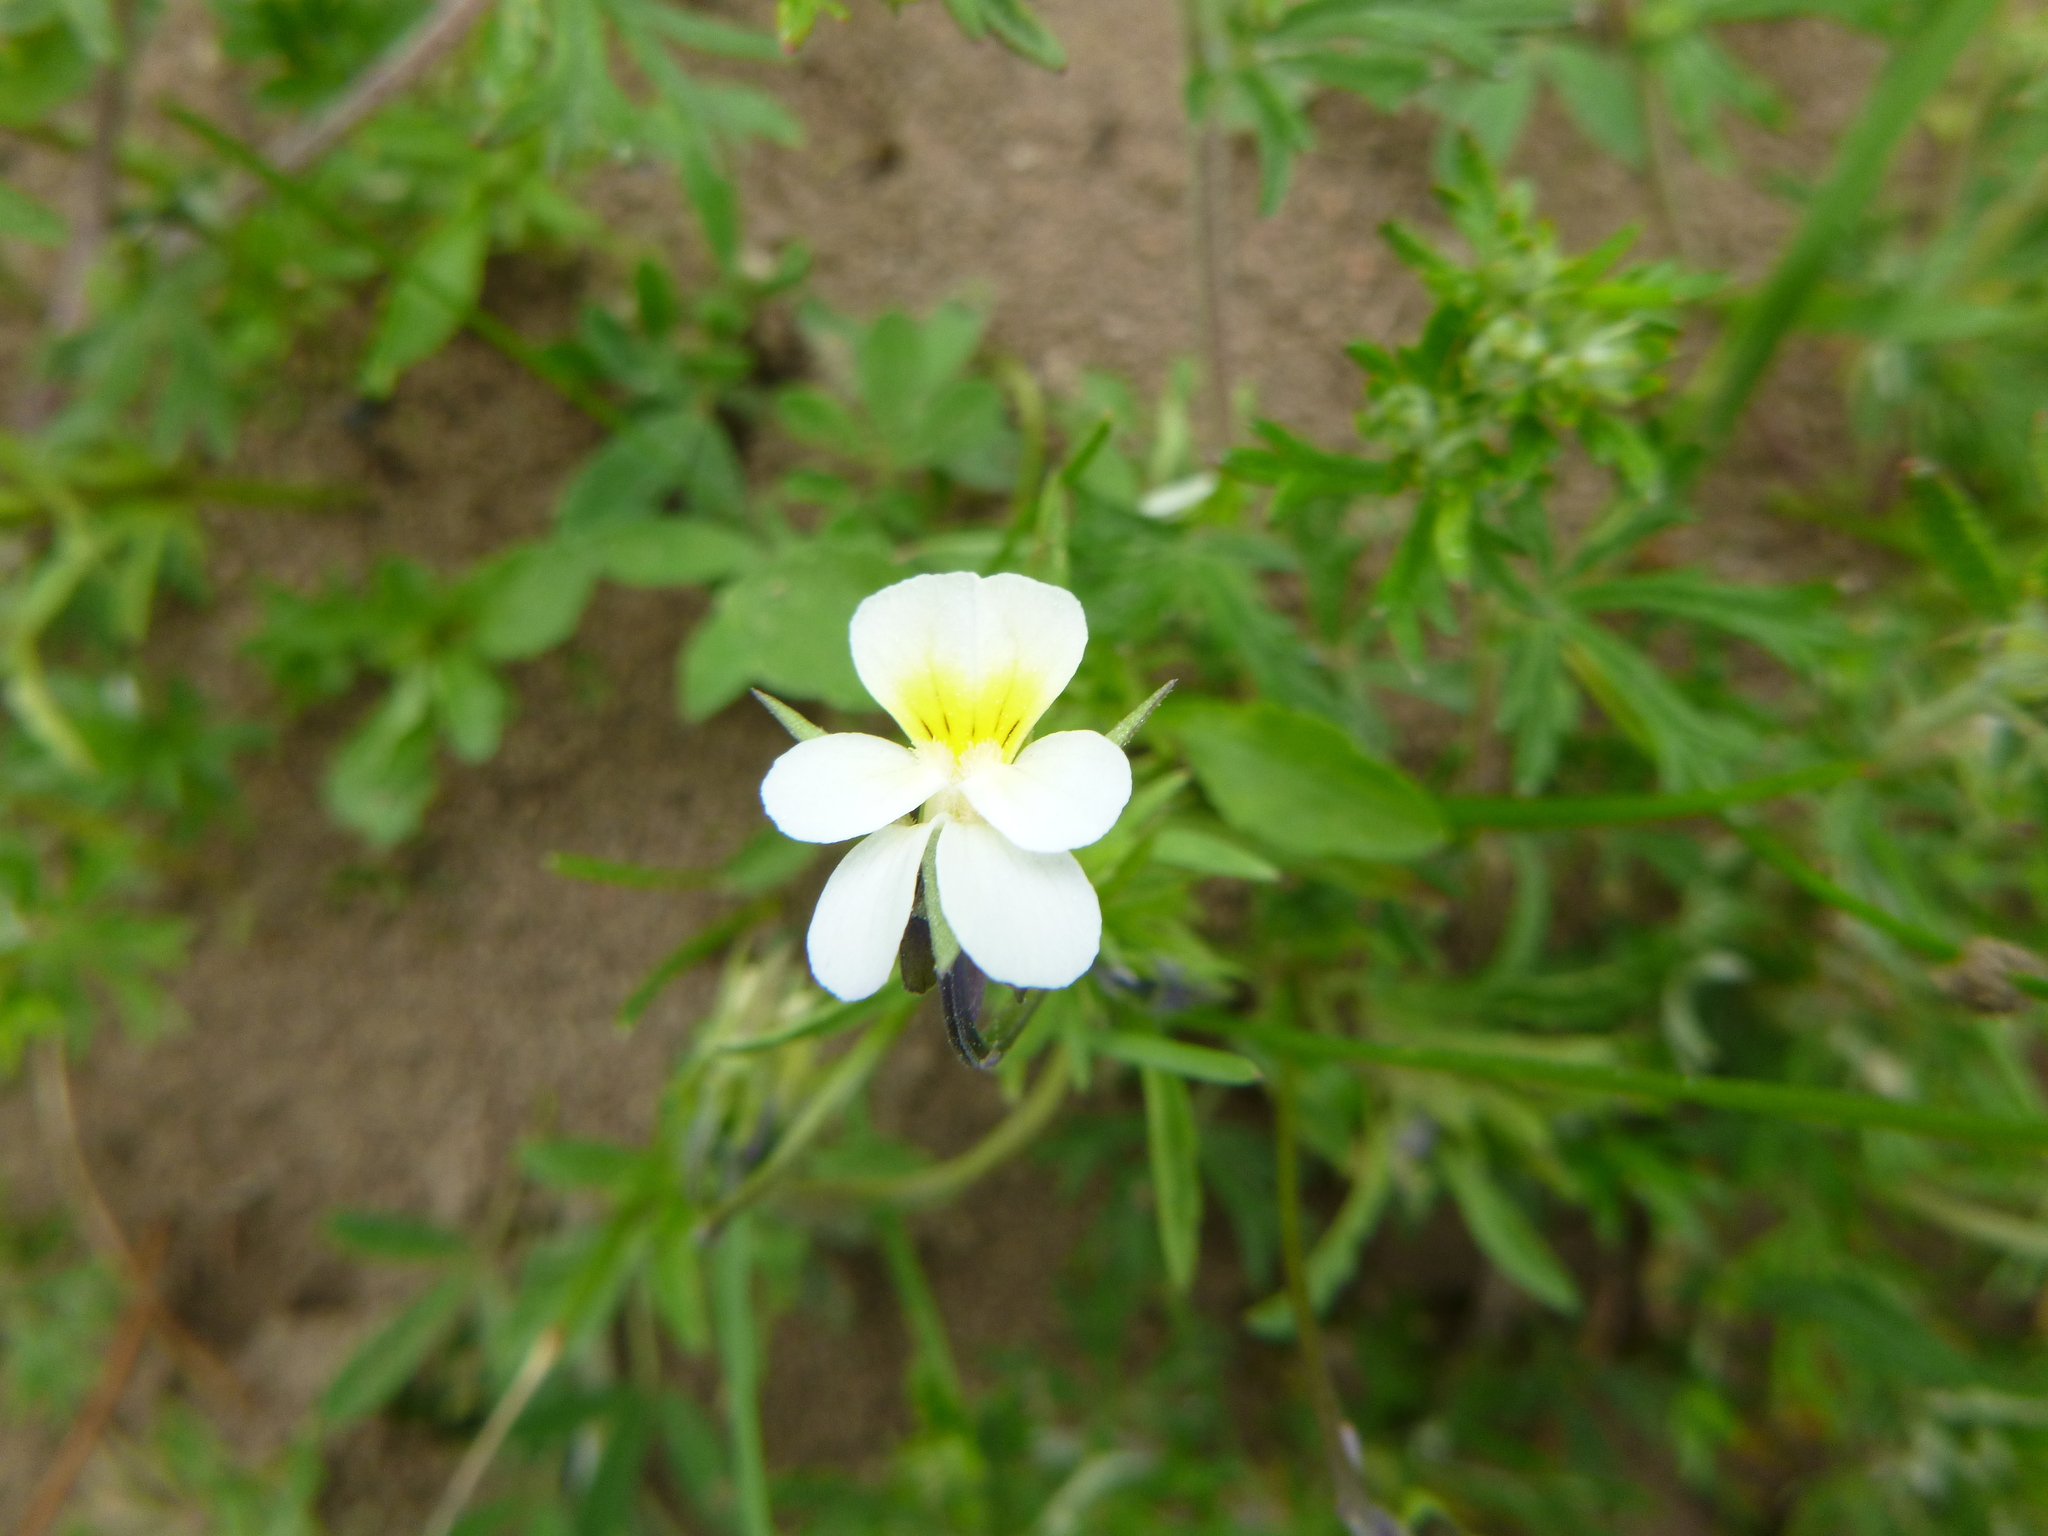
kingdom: Plantae
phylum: Tracheophyta
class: Magnoliopsida
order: Malpighiales
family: Violaceae
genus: Viola
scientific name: Viola arvensis
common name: Field pansy
